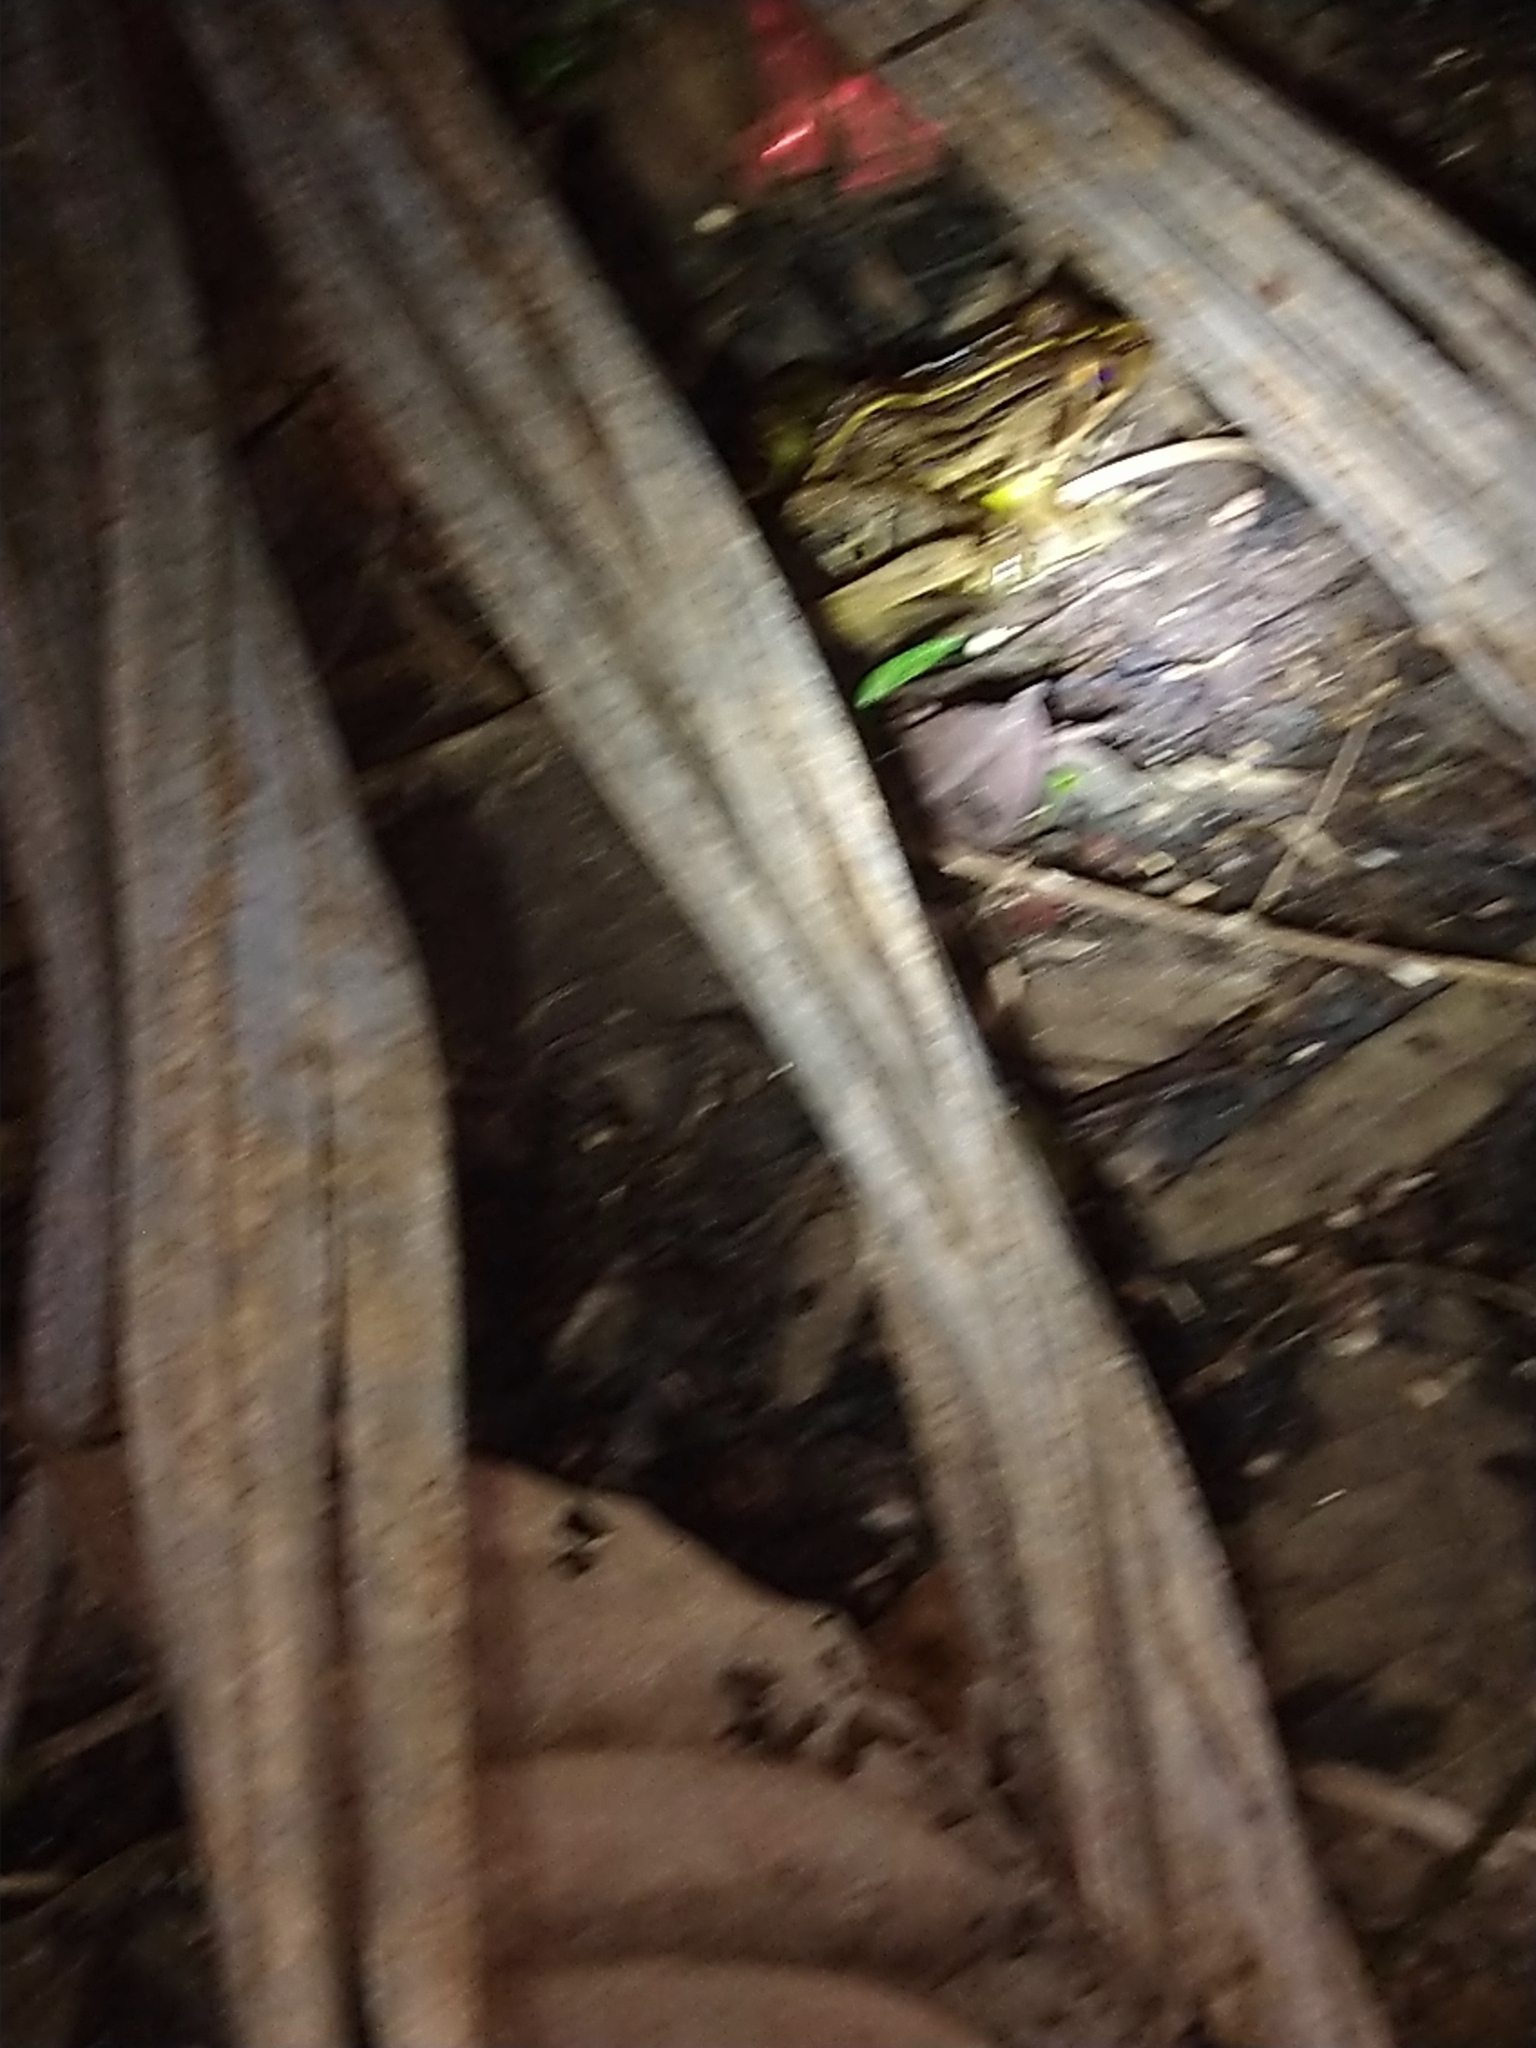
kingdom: Animalia
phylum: Chordata
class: Amphibia
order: Anura
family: Dicroglossidae
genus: Hoplobatrachus
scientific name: Hoplobatrachus tigerinus
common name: Indian bullfrog
